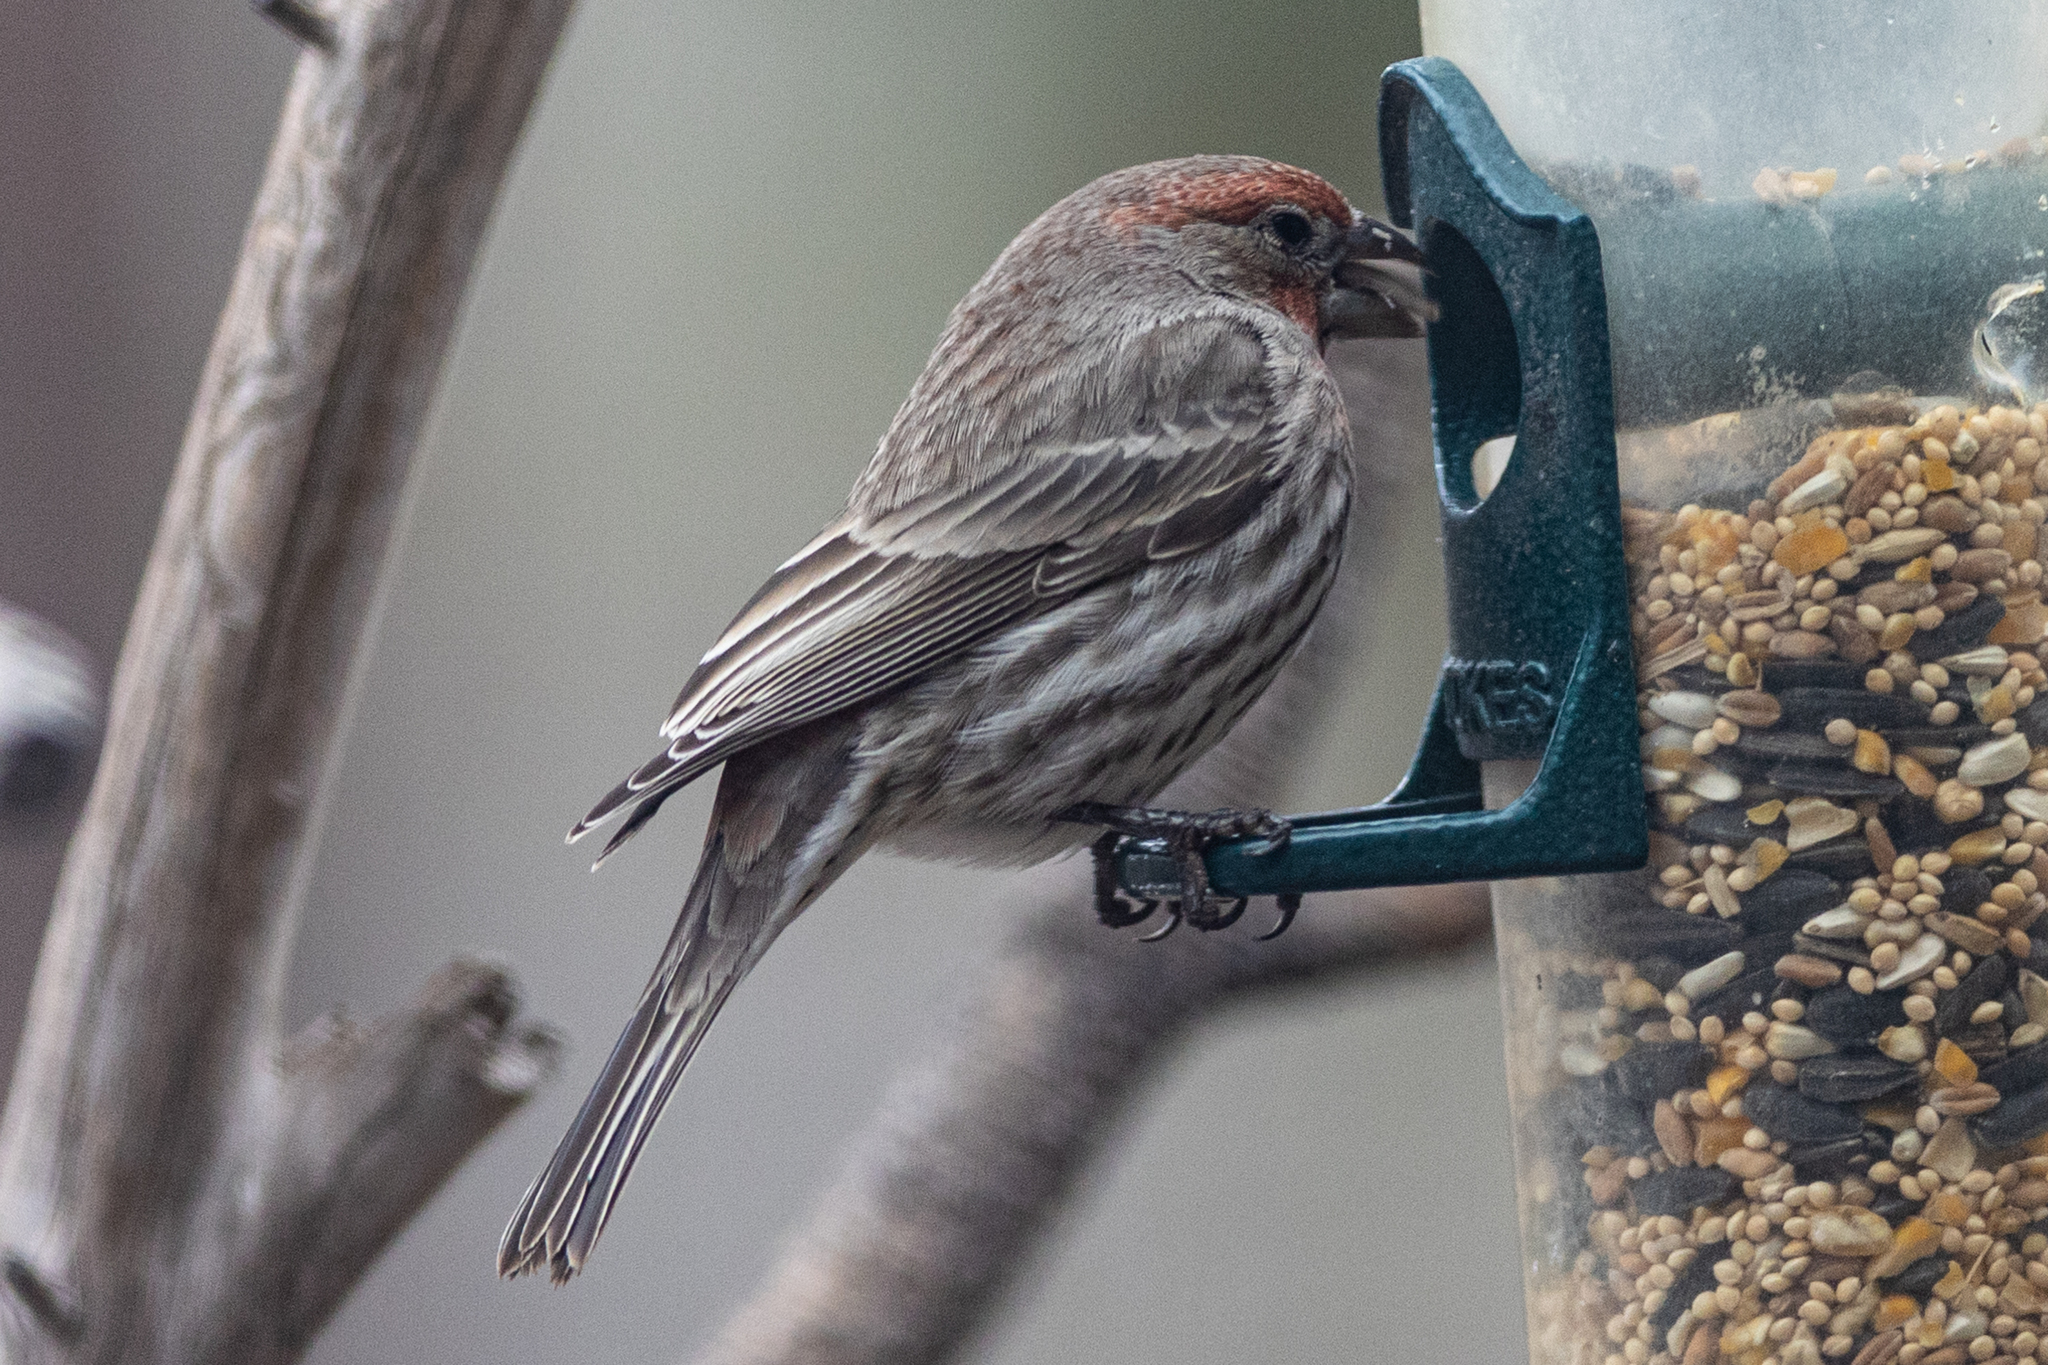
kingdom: Animalia
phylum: Chordata
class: Aves
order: Passeriformes
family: Fringillidae
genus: Haemorhous
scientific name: Haemorhous mexicanus
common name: House finch
